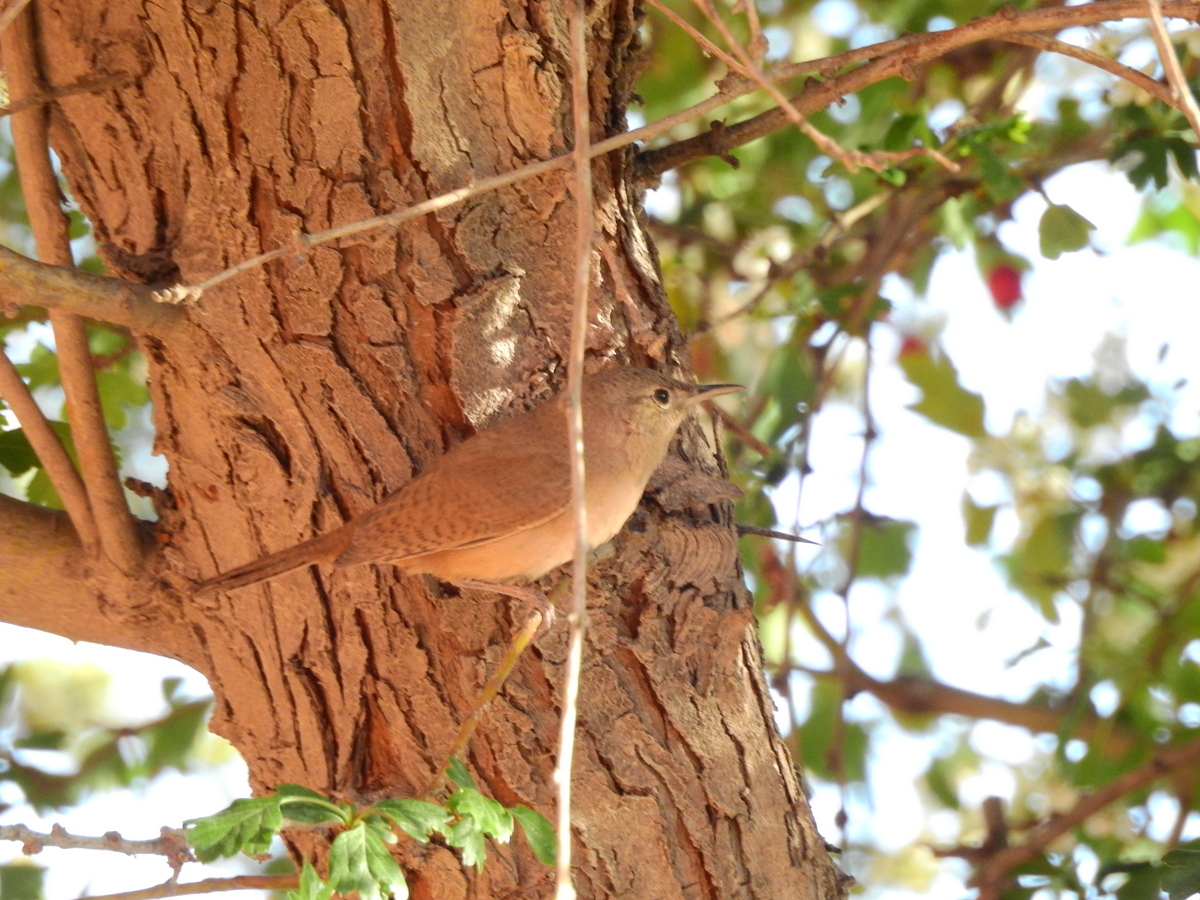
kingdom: Animalia
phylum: Chordata
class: Aves
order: Passeriformes
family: Troglodytidae
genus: Troglodytes
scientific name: Troglodytes aedon
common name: House wren
